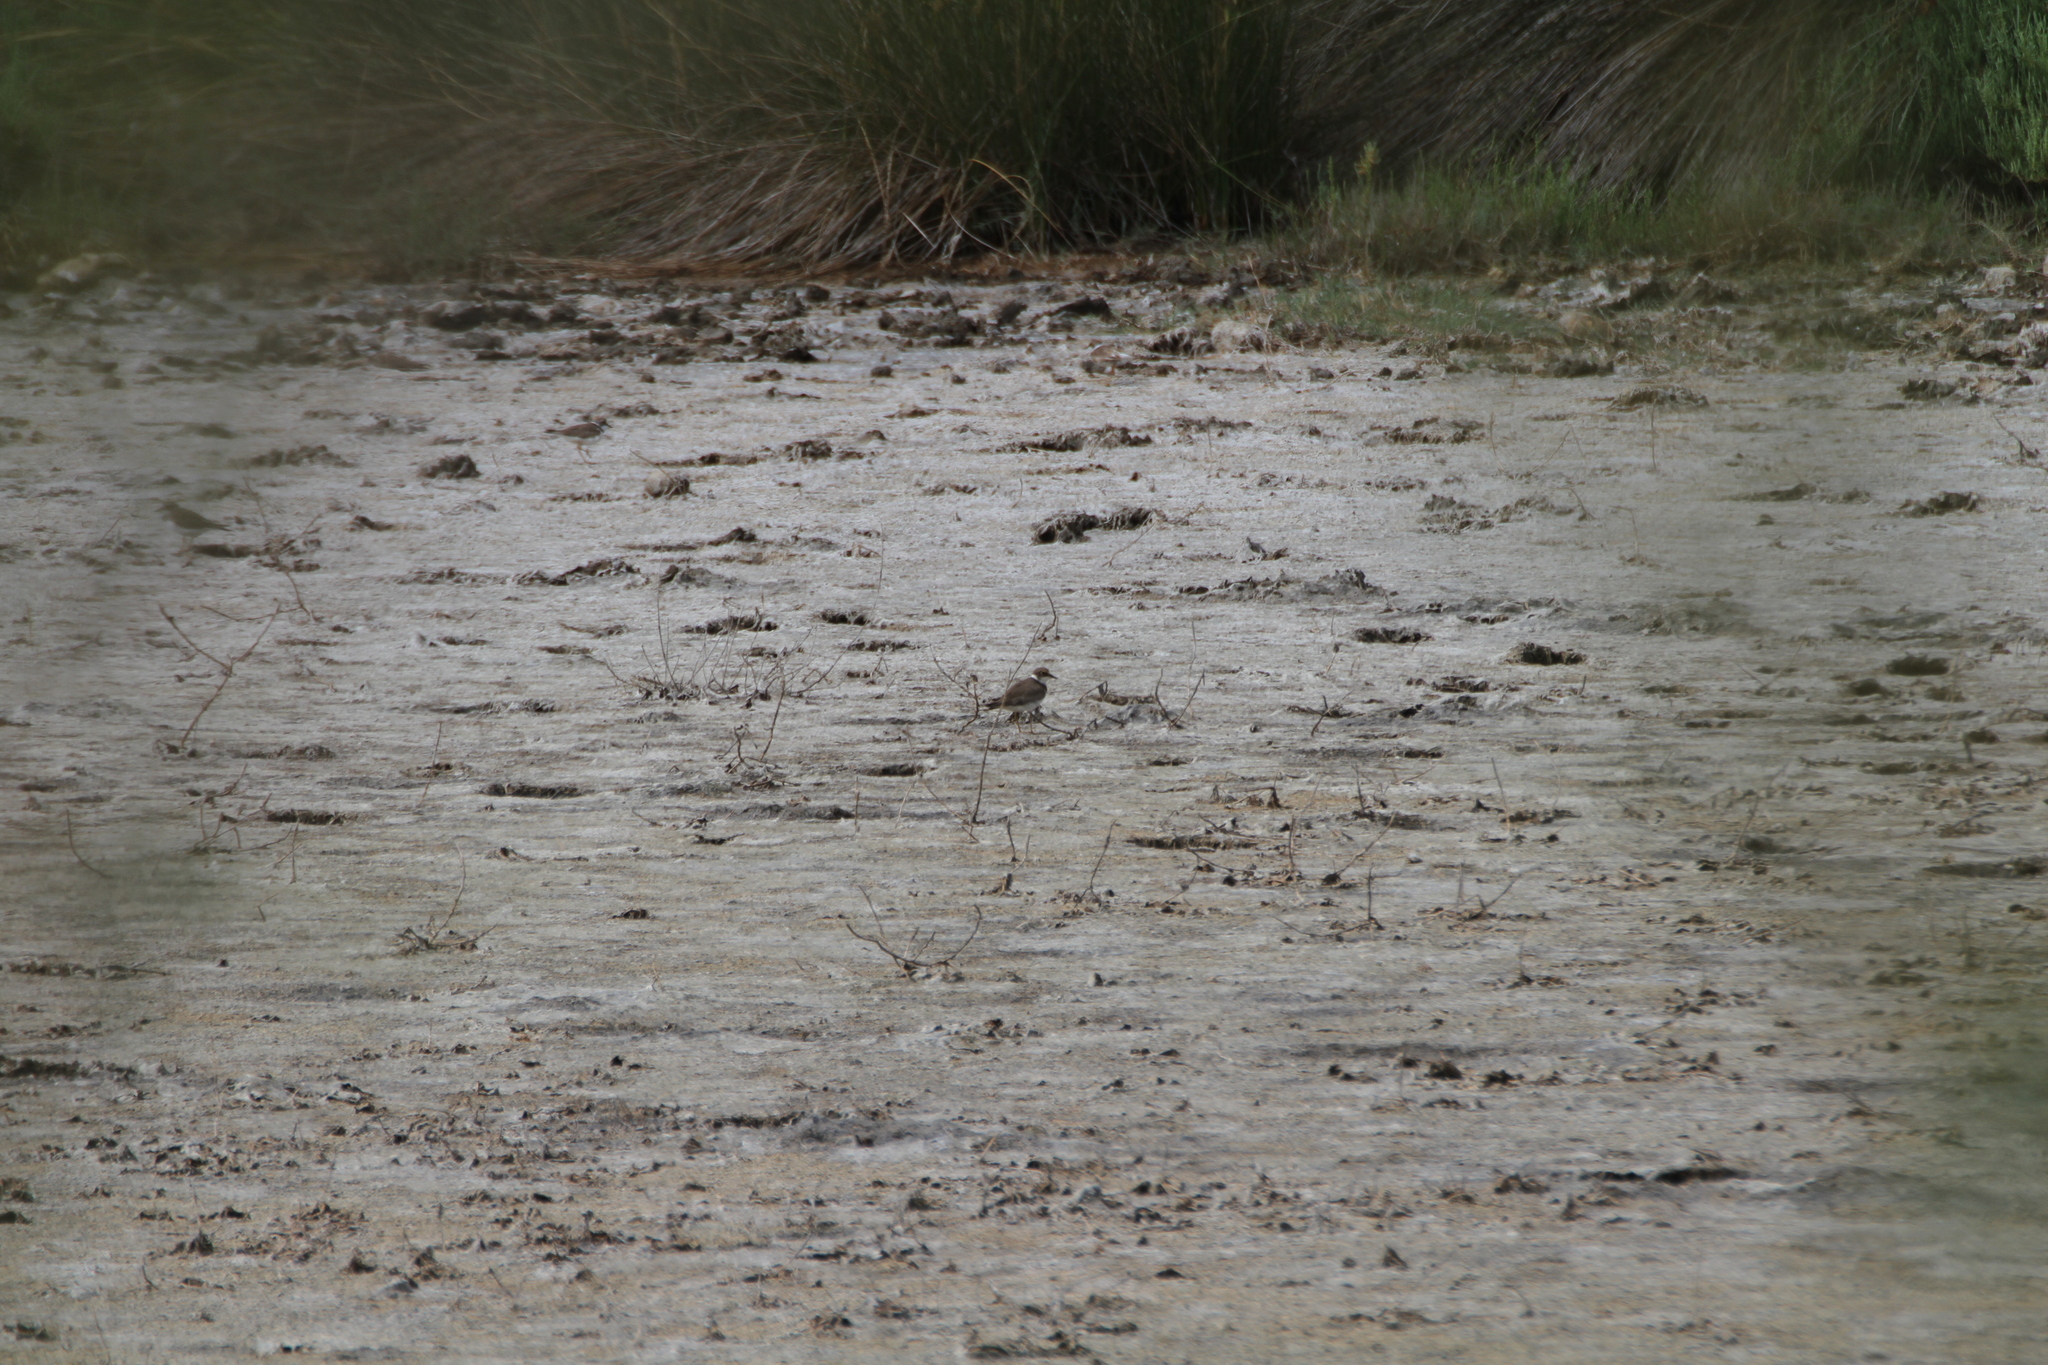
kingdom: Animalia
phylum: Chordata
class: Aves
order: Charadriiformes
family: Charadriidae
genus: Charadrius
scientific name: Charadrius dubius
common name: Little ringed plover
